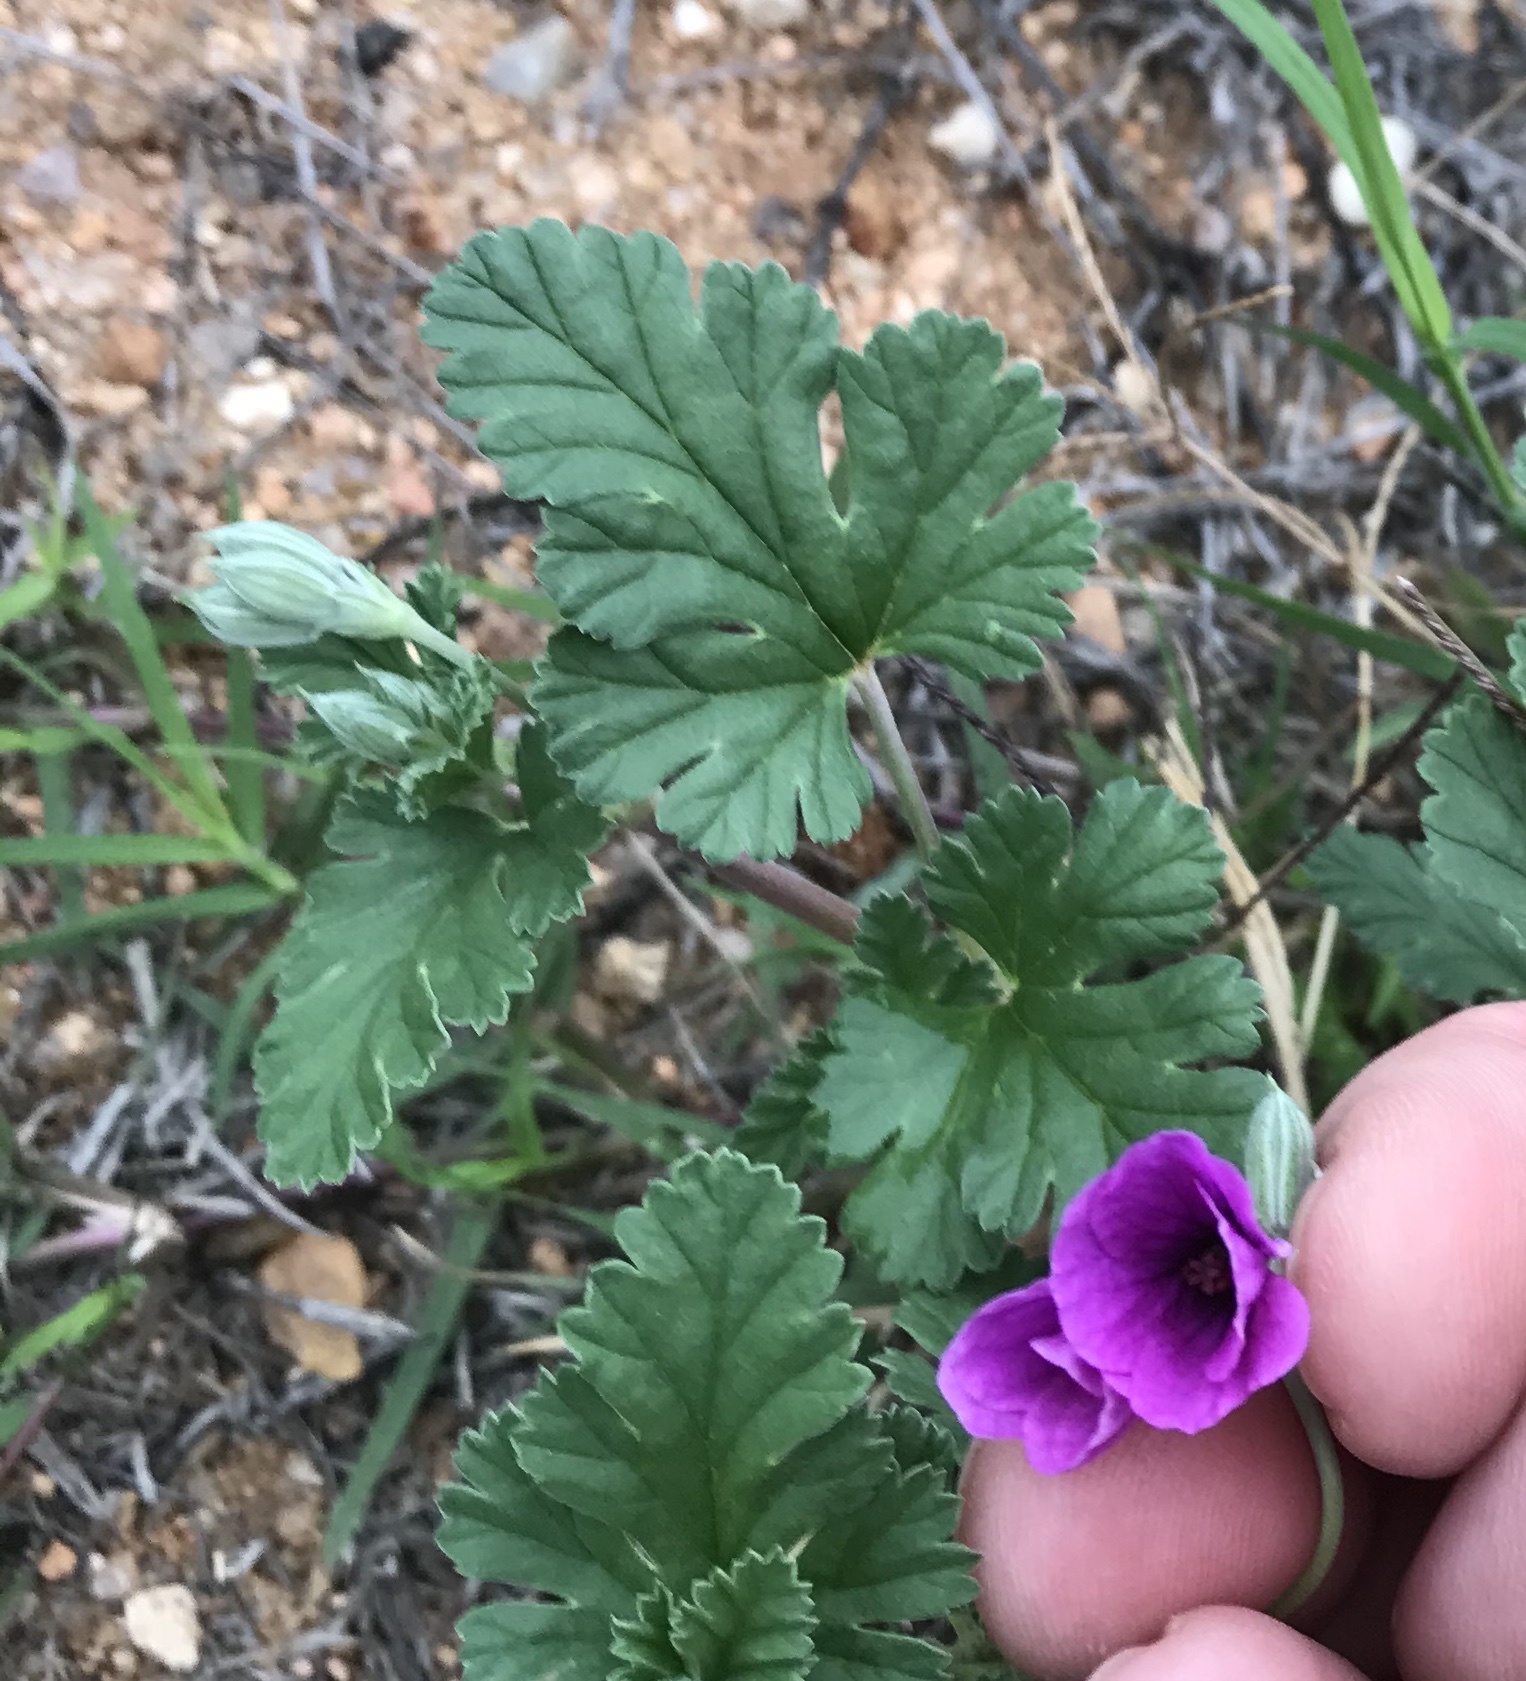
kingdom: Plantae
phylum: Tracheophyta
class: Magnoliopsida
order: Geraniales
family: Geraniaceae
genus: Erodium
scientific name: Erodium texanum
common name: Texas stork's-bill
